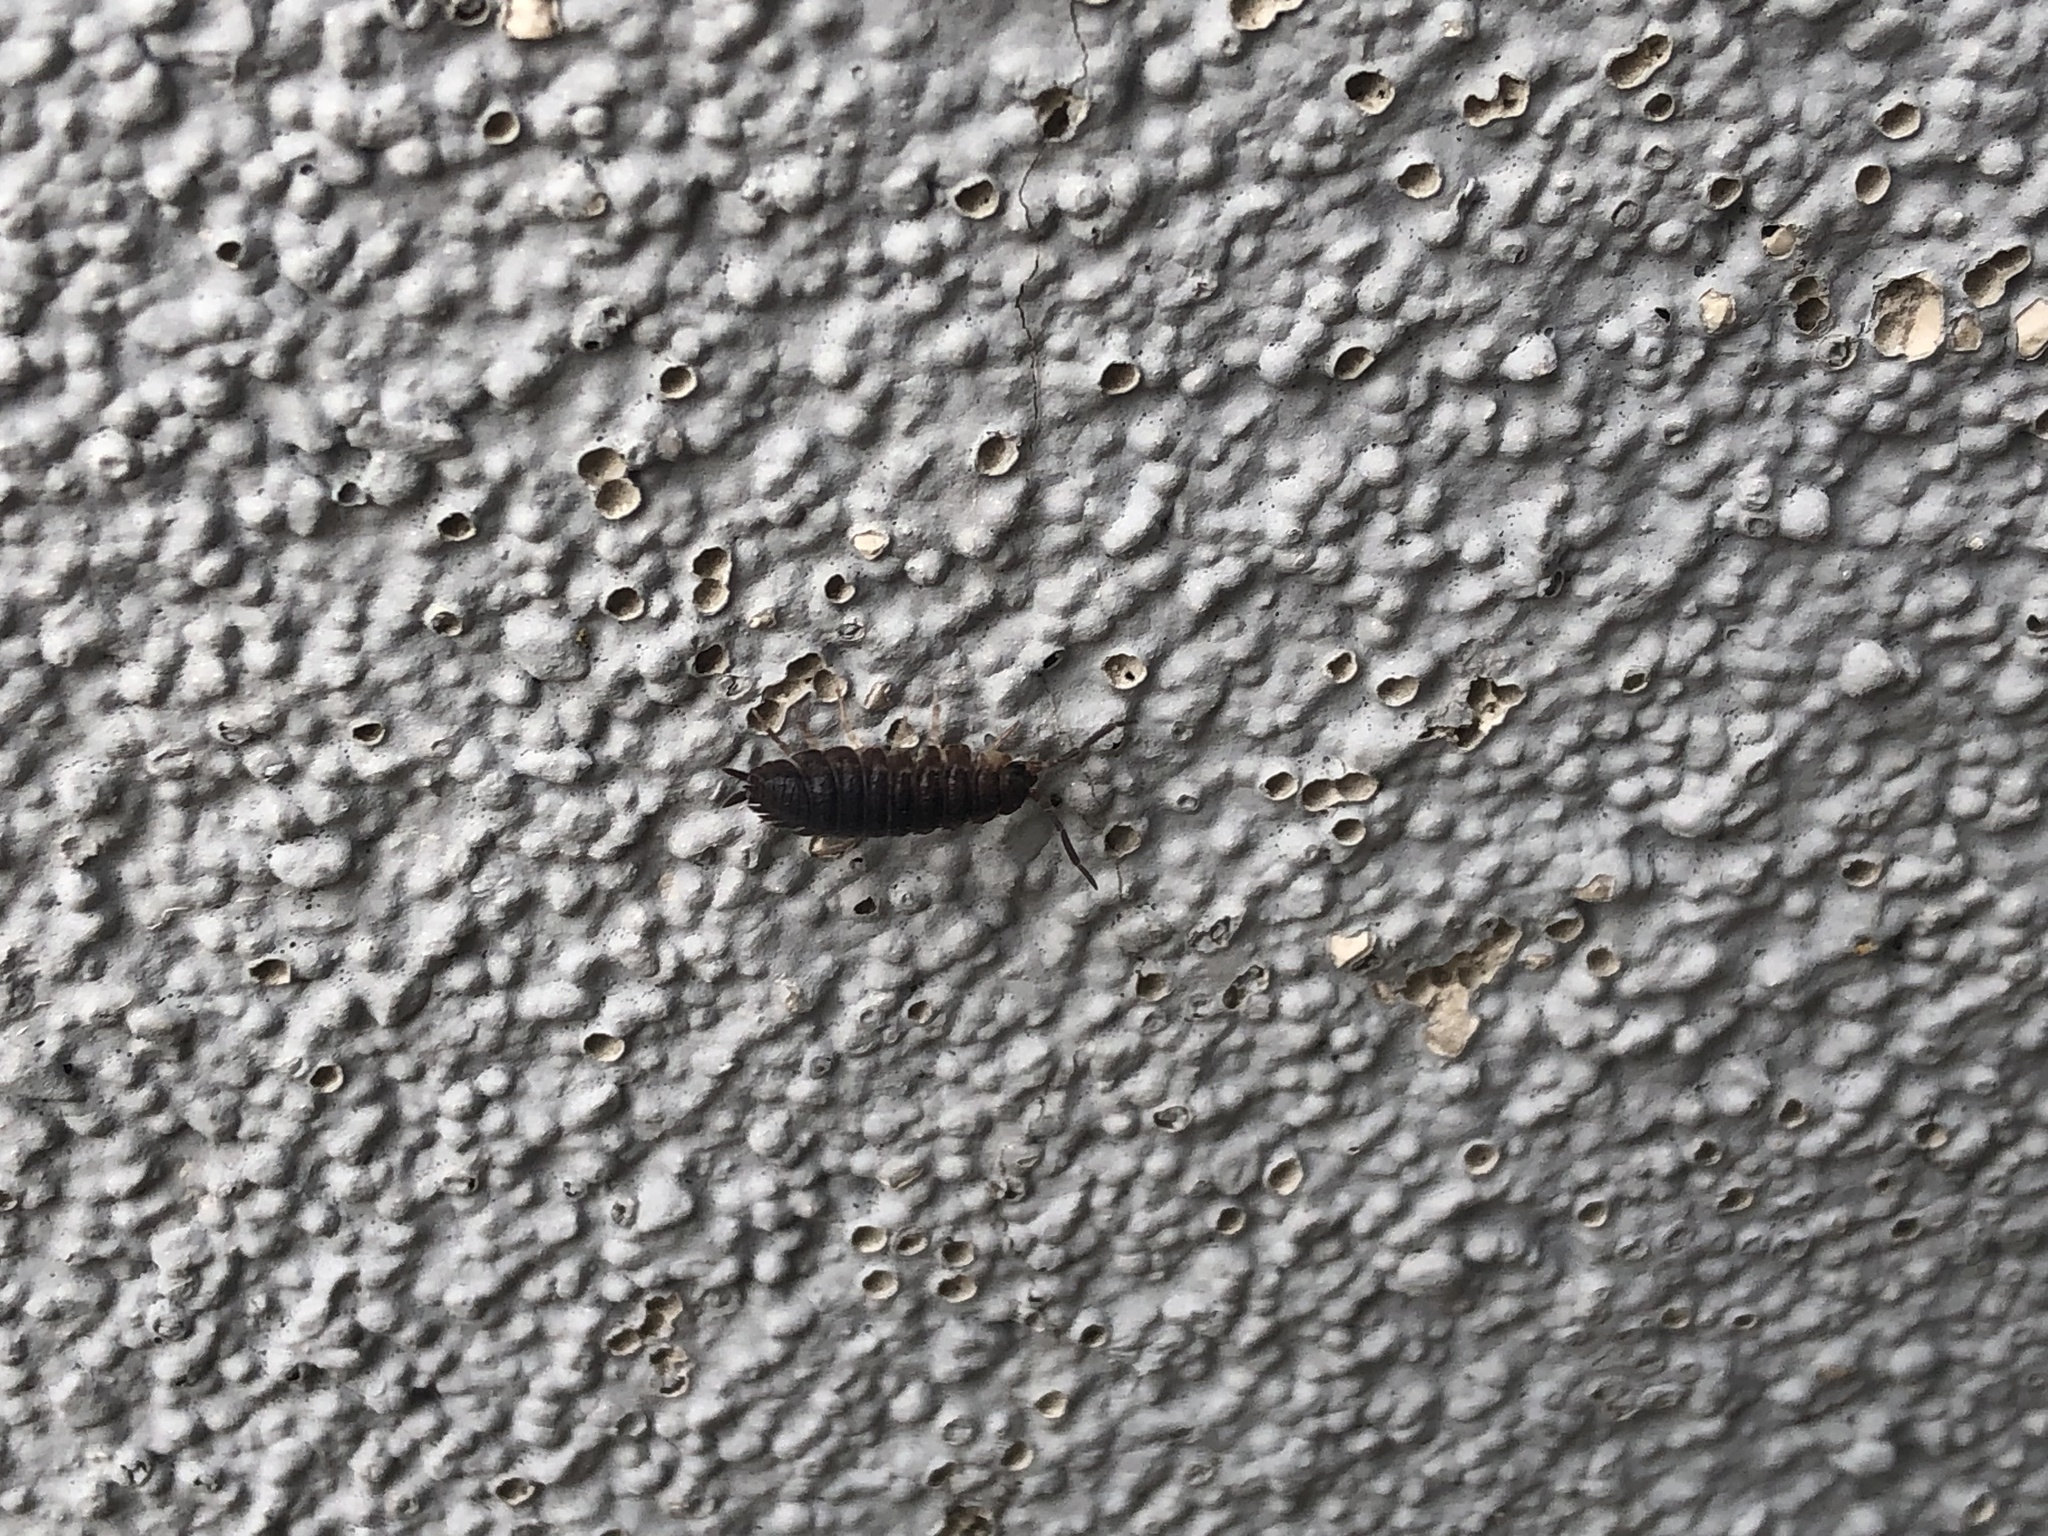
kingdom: Animalia
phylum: Arthropoda
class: Malacostraca
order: Isopoda
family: Porcellionidae
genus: Porcellio
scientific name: Porcellio scaber
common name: Common rough woodlouse
